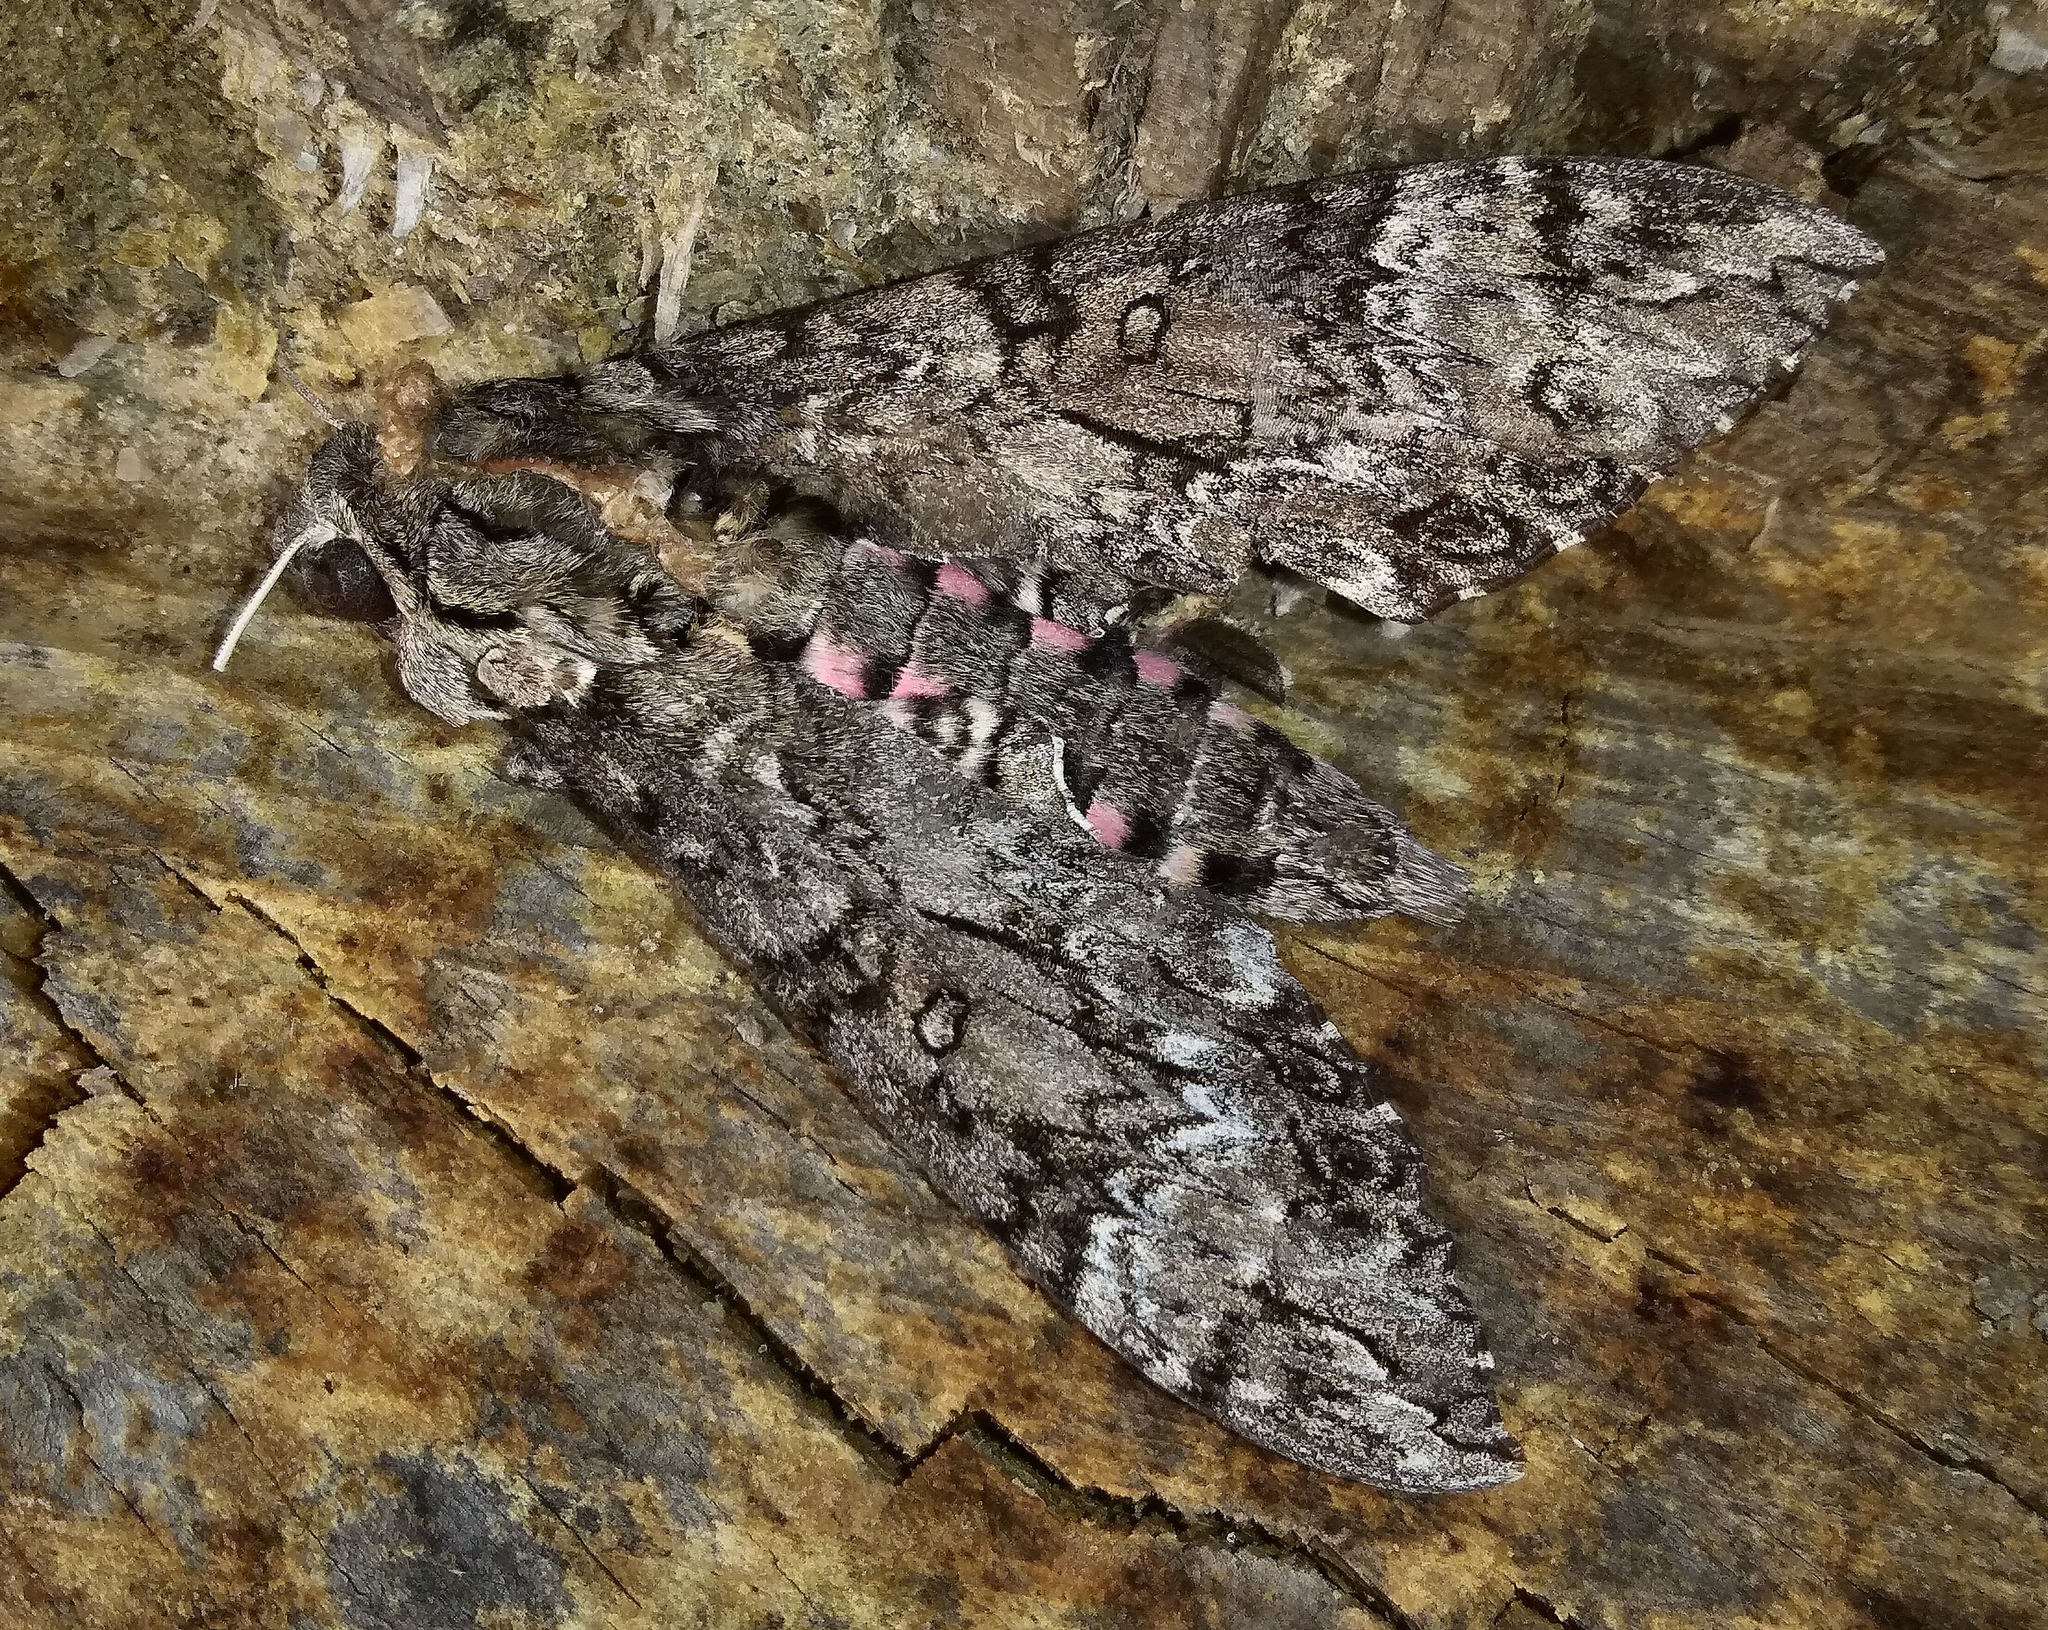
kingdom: Animalia
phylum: Arthropoda
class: Insecta
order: Lepidoptera
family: Sphingidae
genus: Agrius
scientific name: Agrius cingulata
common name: Pink-spotted hawkmoth
